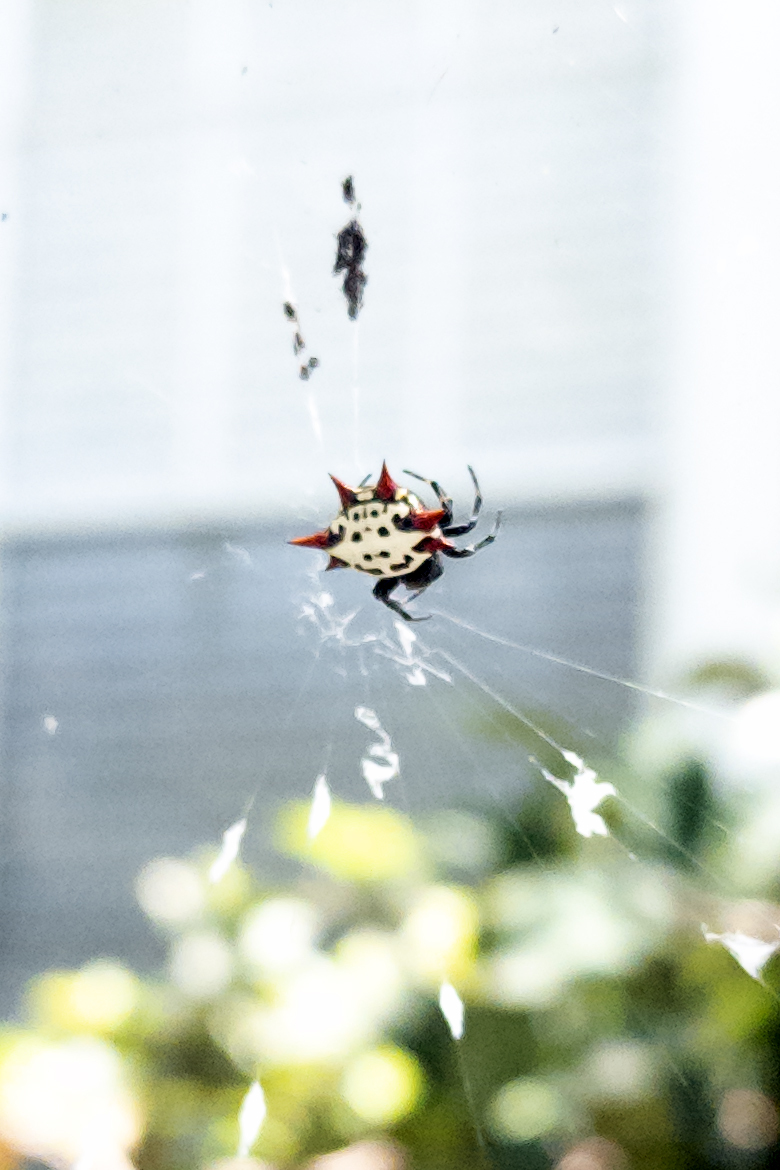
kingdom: Animalia
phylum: Arthropoda
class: Arachnida
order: Araneae
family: Araneidae
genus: Gasteracantha
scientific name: Gasteracantha cancriformis
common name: Orb weavers
